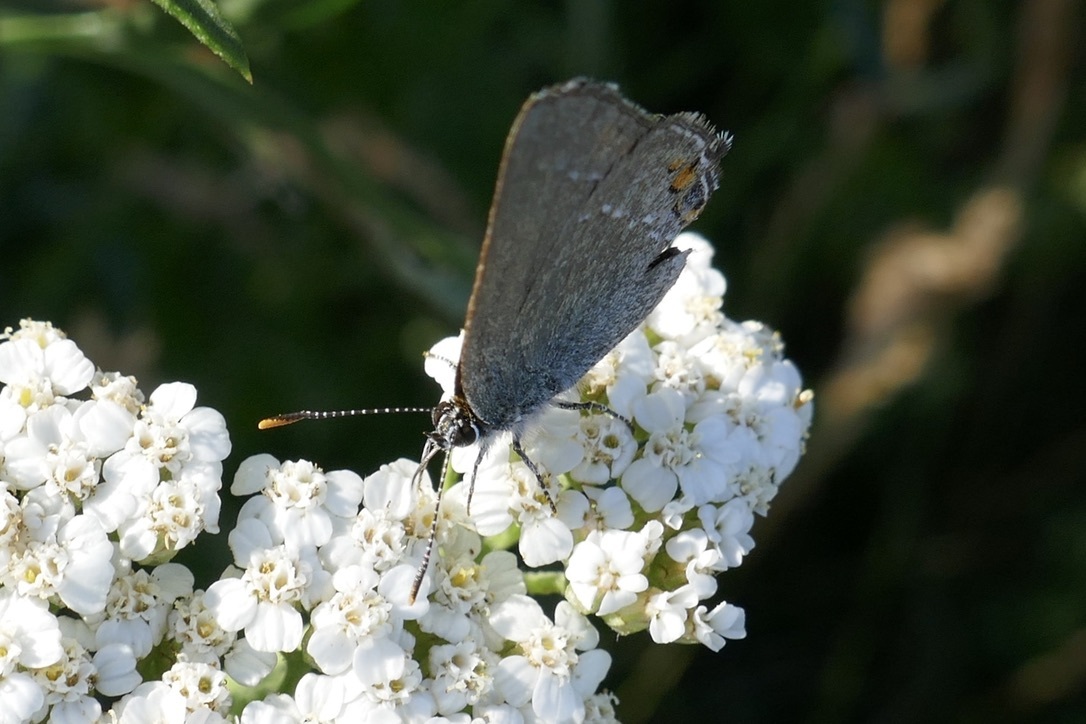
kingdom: Animalia
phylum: Arthropoda
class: Insecta
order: Lepidoptera
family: Lycaenidae
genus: Strymon
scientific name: Strymon acaciae
